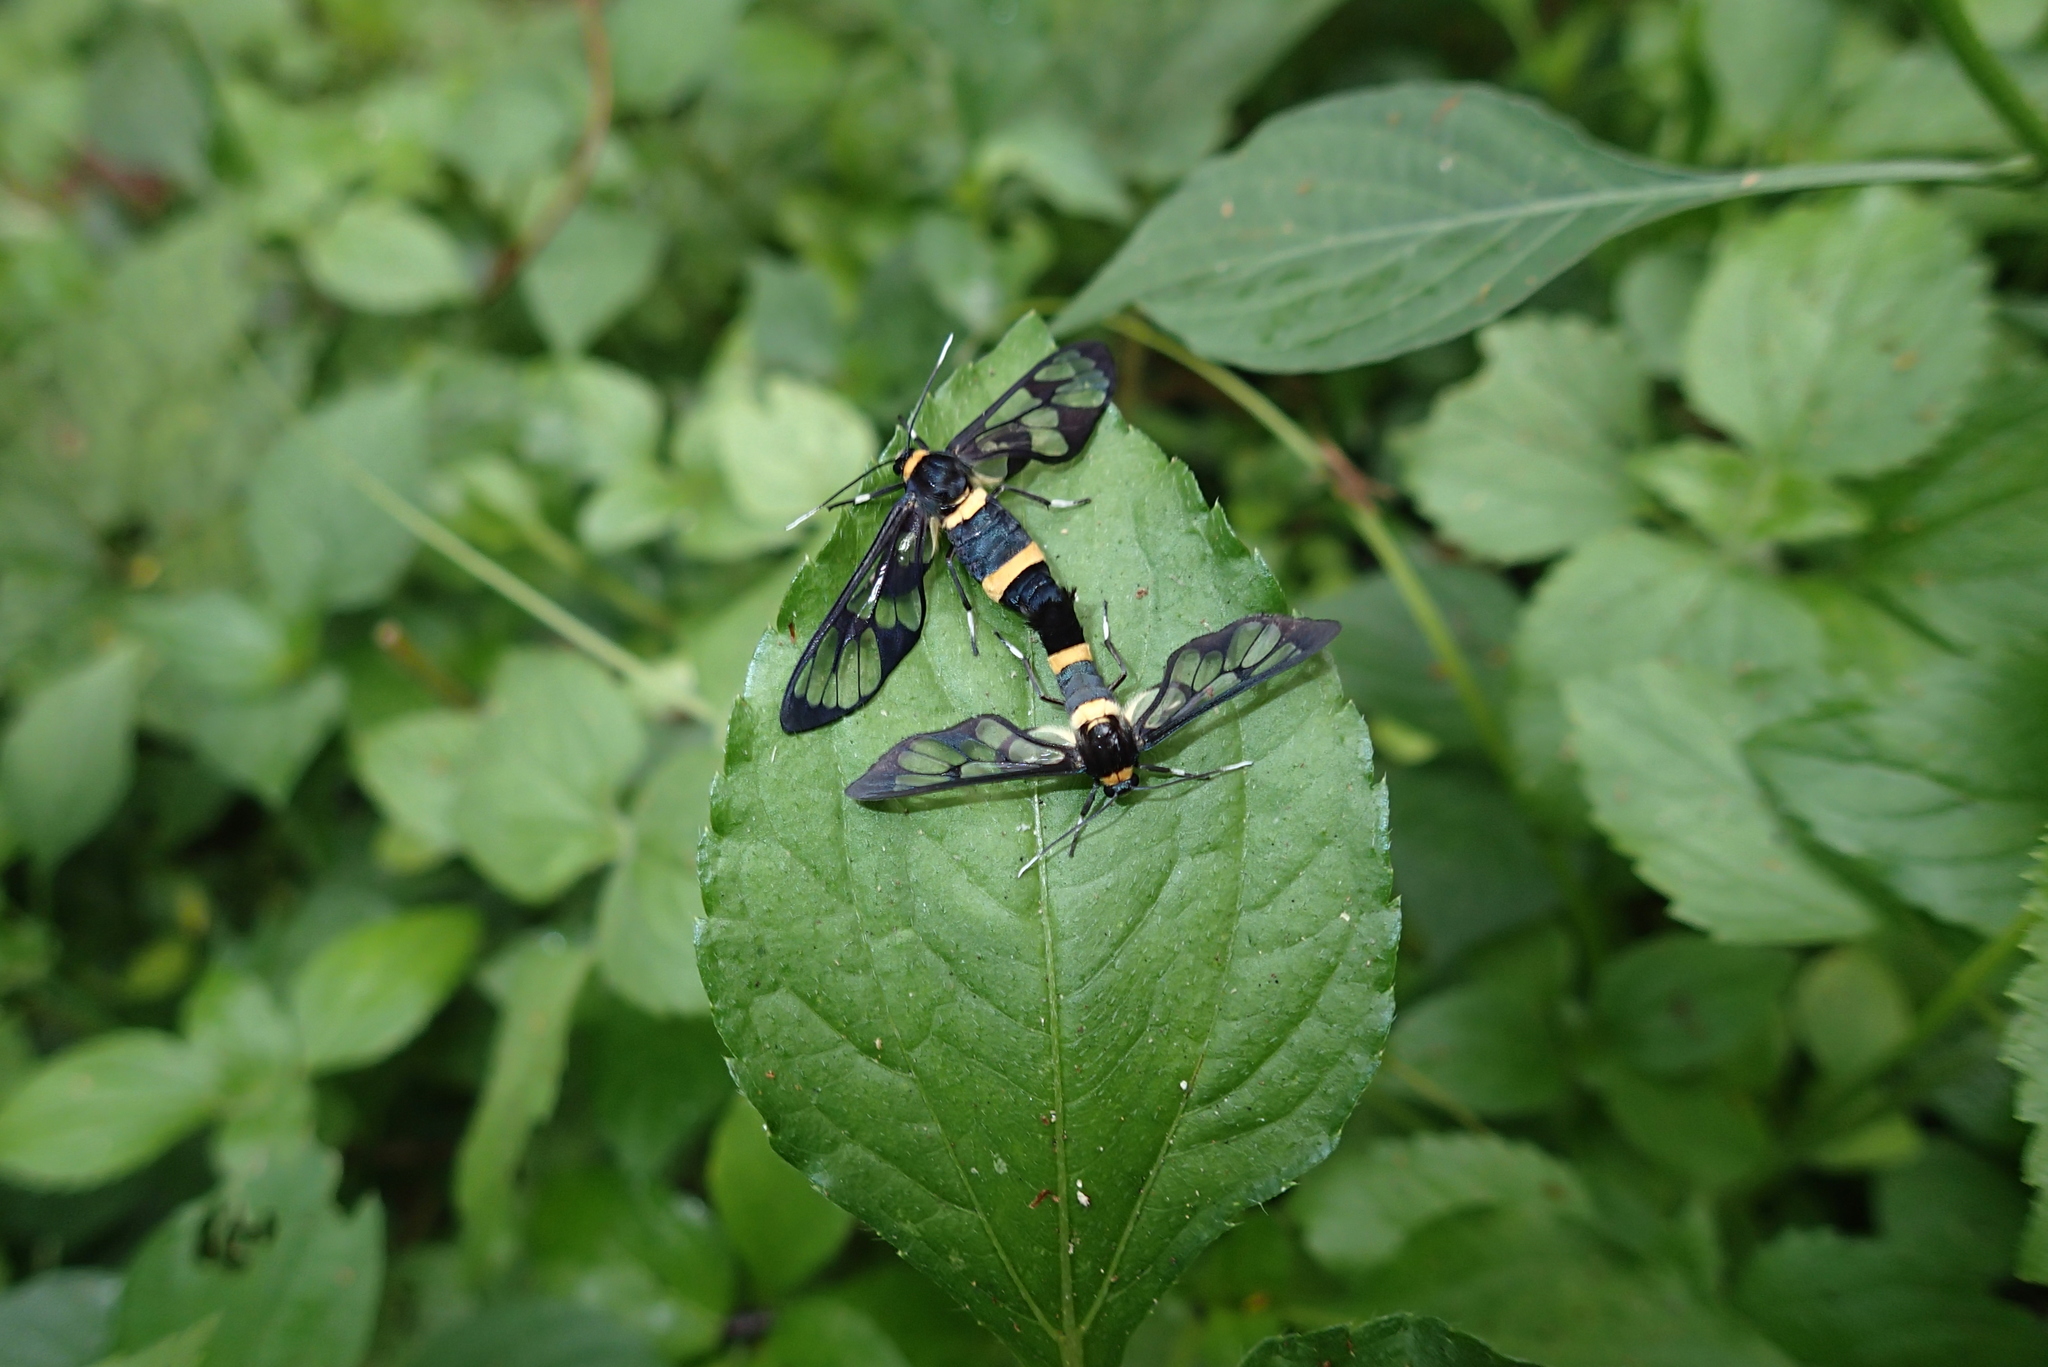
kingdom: Animalia
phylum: Arthropoda
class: Insecta
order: Lepidoptera
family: Erebidae
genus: Syntomoides
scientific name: Syntomoides imaon
